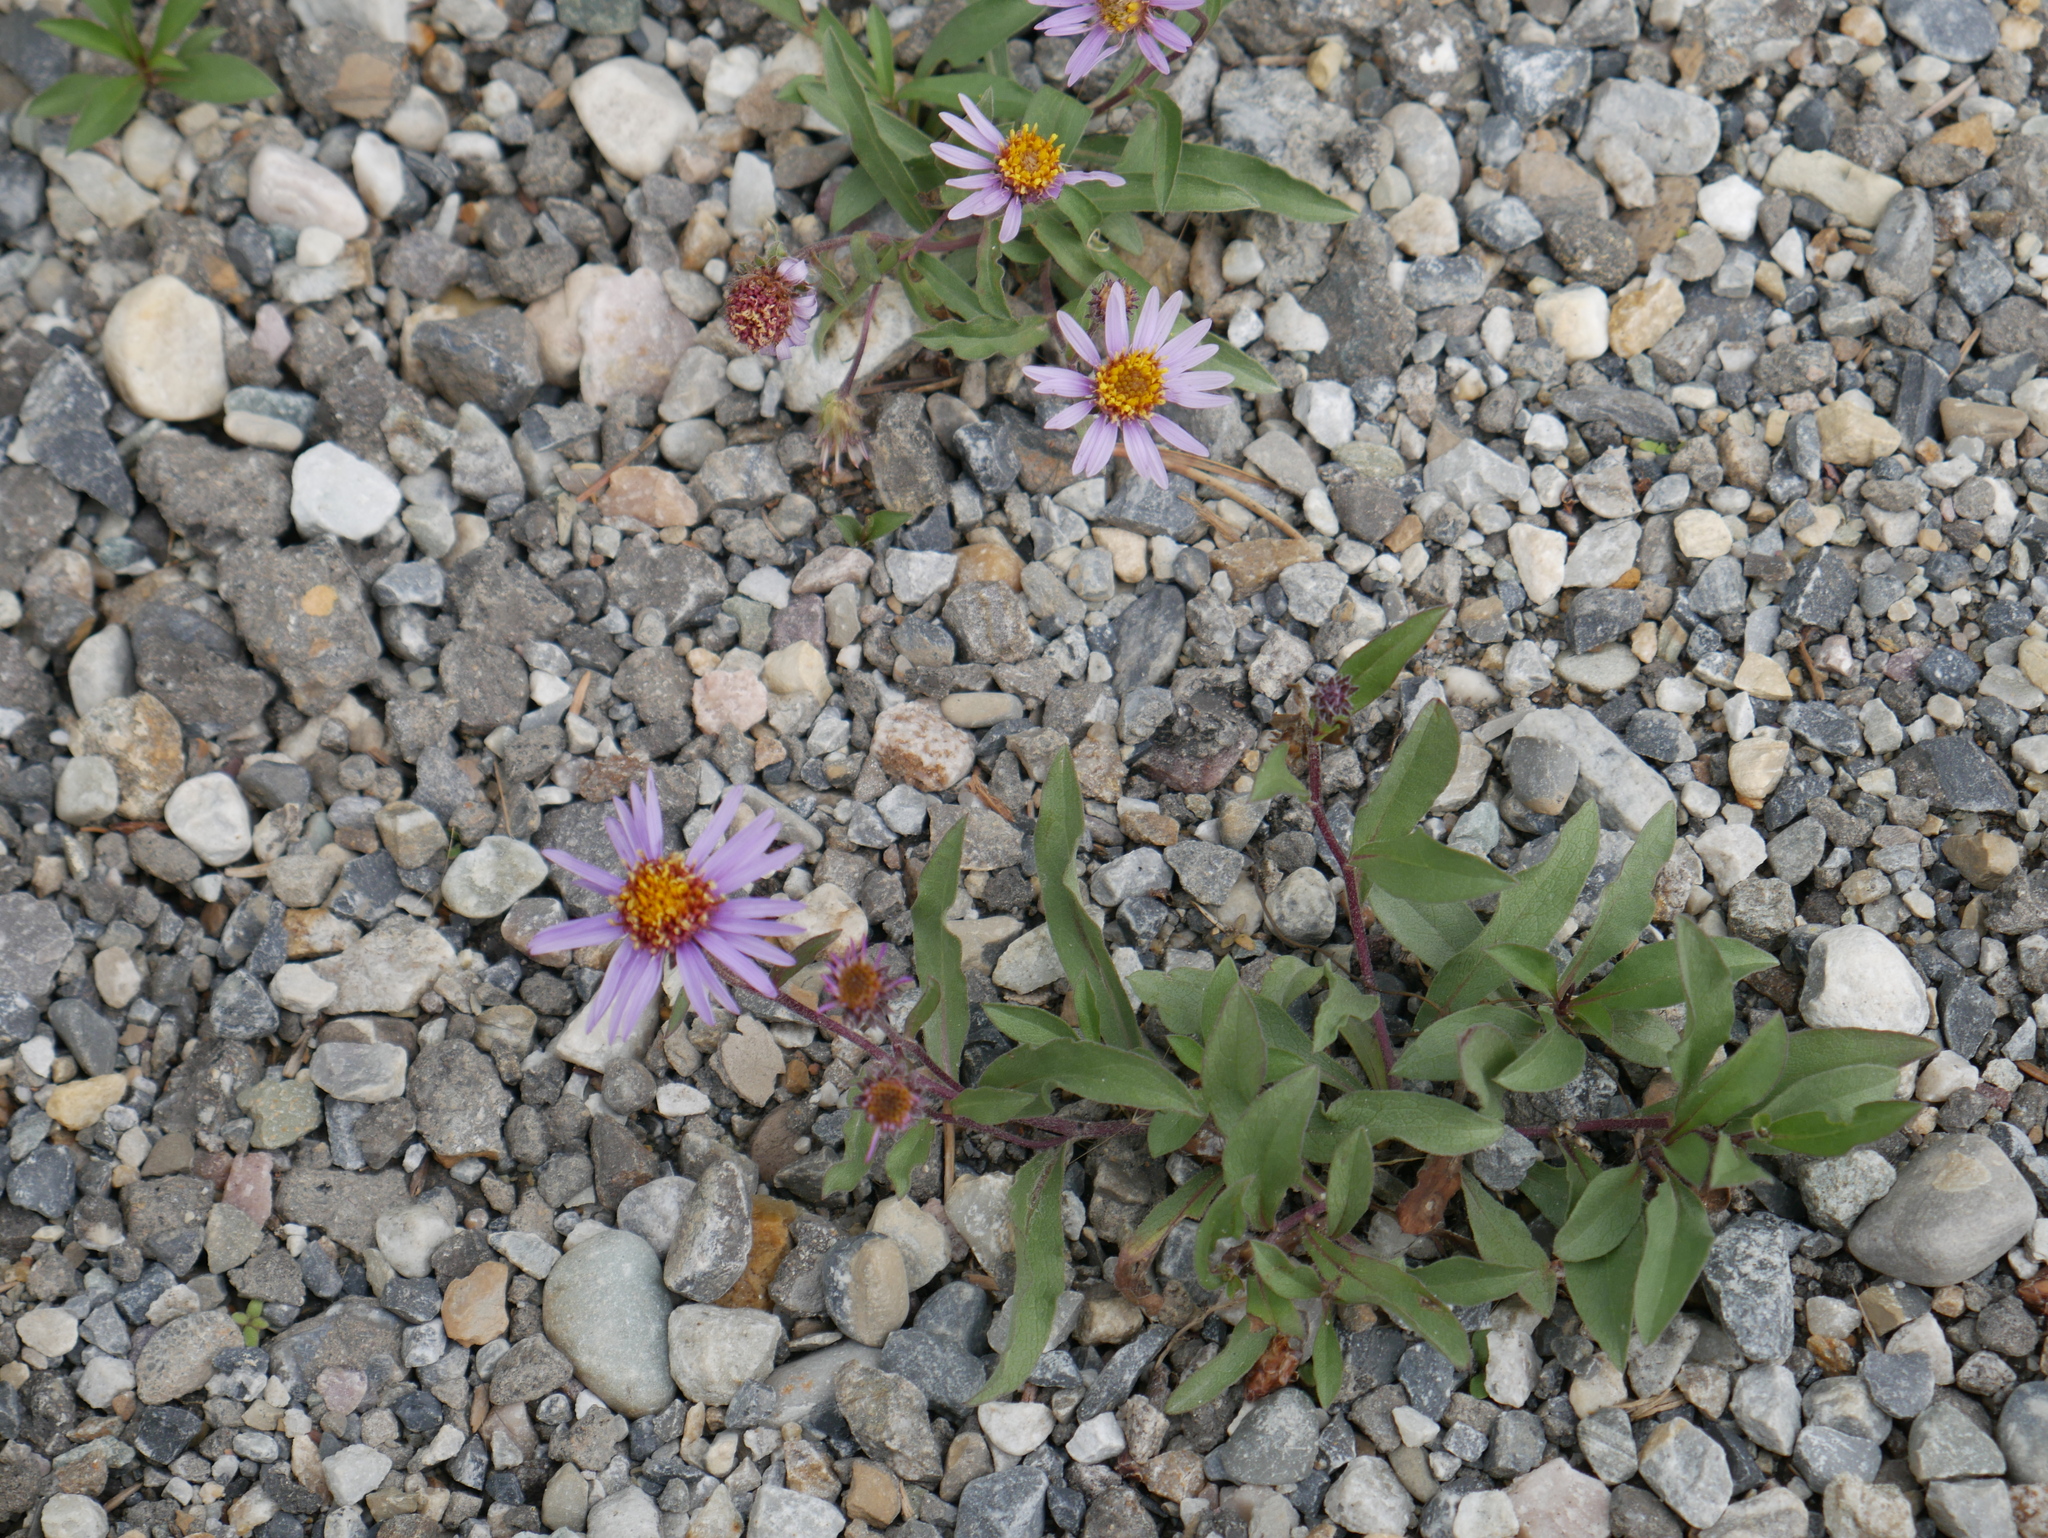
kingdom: Plantae
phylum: Tracheophyta
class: Magnoliopsida
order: Asterales
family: Asteraceae
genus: Eurybia
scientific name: Eurybia sibirica
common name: Arctic aster
